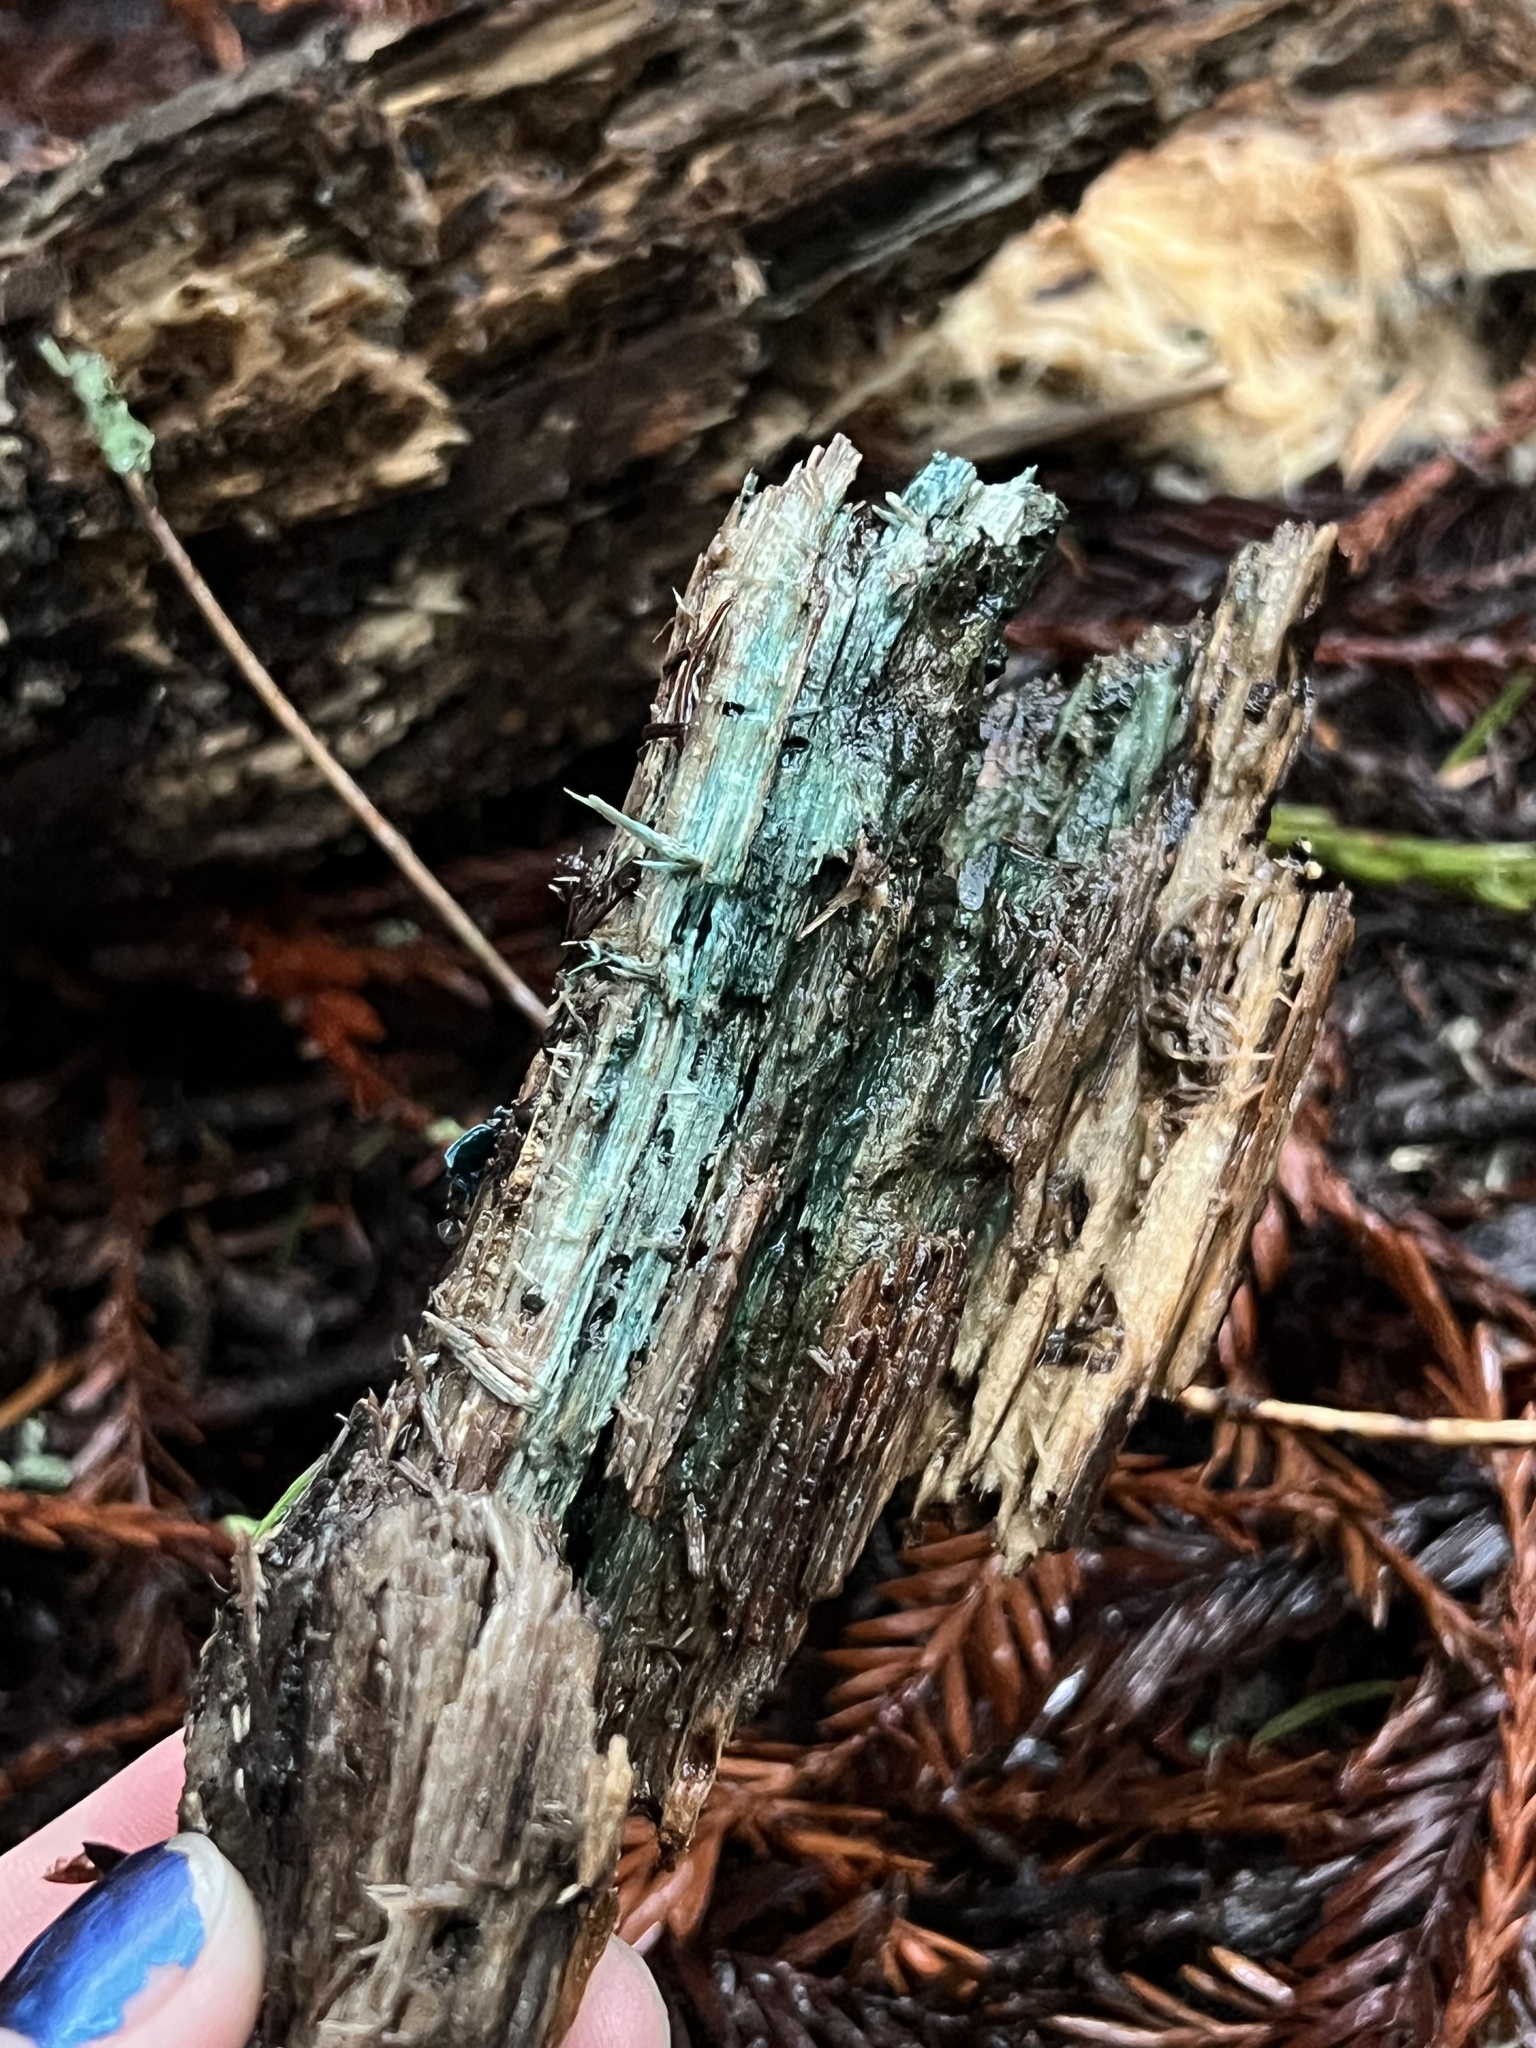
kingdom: Fungi
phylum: Ascomycota
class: Leotiomycetes
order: Helotiales
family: Chlorociboriaceae
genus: Chlorociboria
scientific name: Chlorociboria aeruginascens
